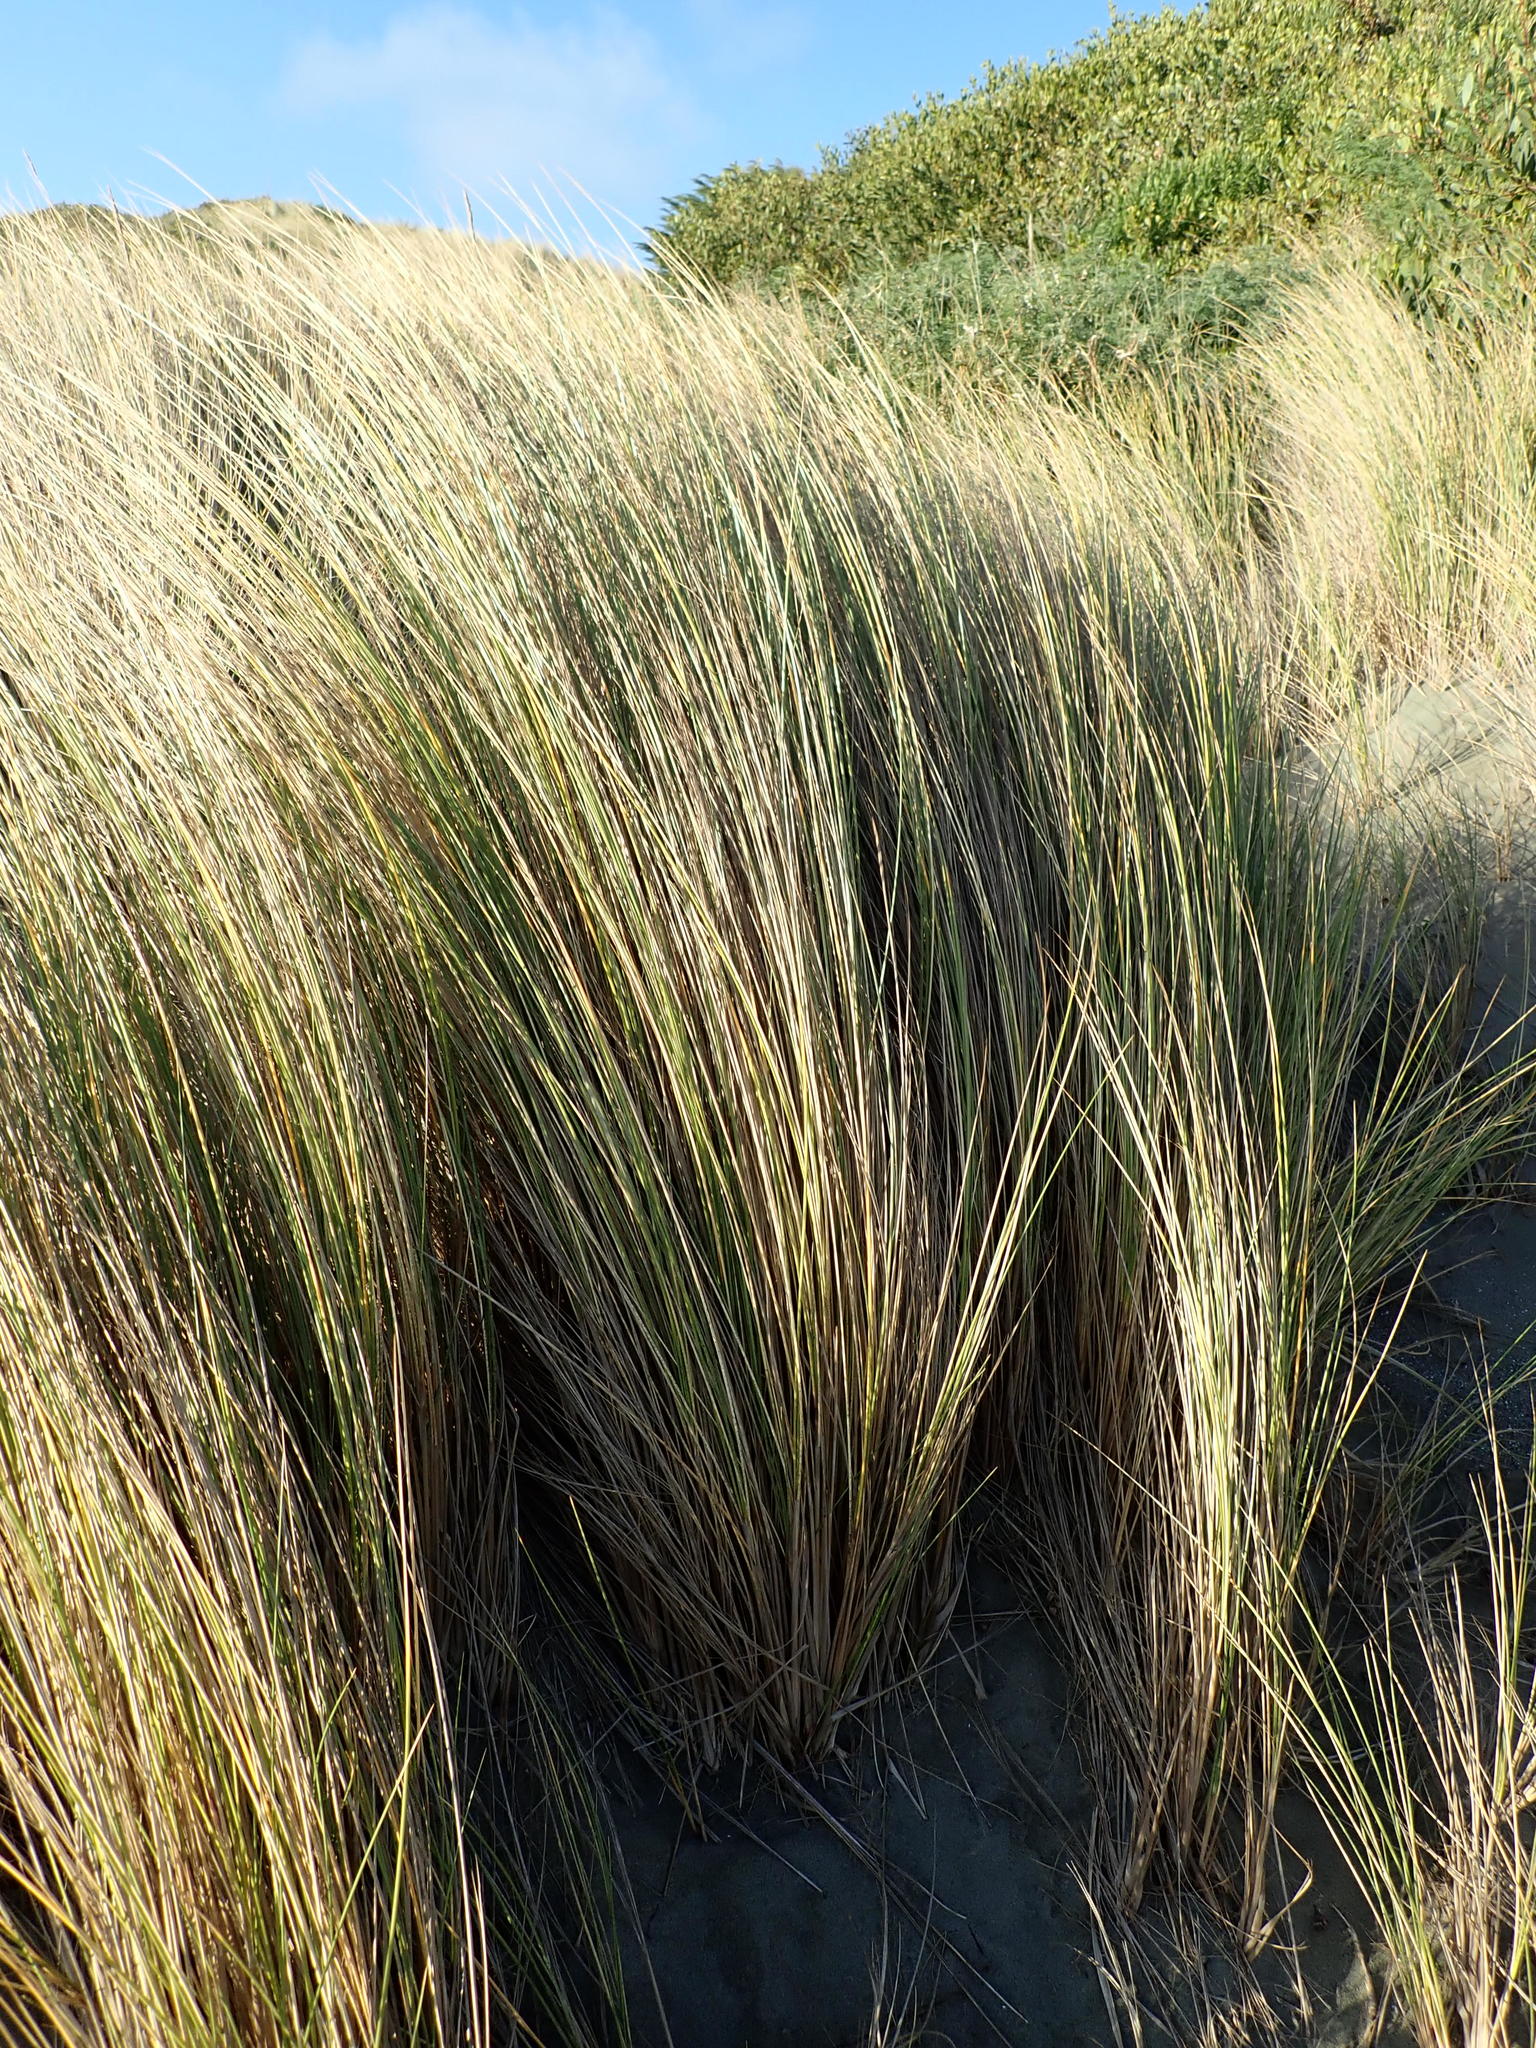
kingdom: Plantae
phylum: Tracheophyta
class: Liliopsida
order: Poales
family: Poaceae
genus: Calamagrostis
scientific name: Calamagrostis arenaria
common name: European beachgrass
